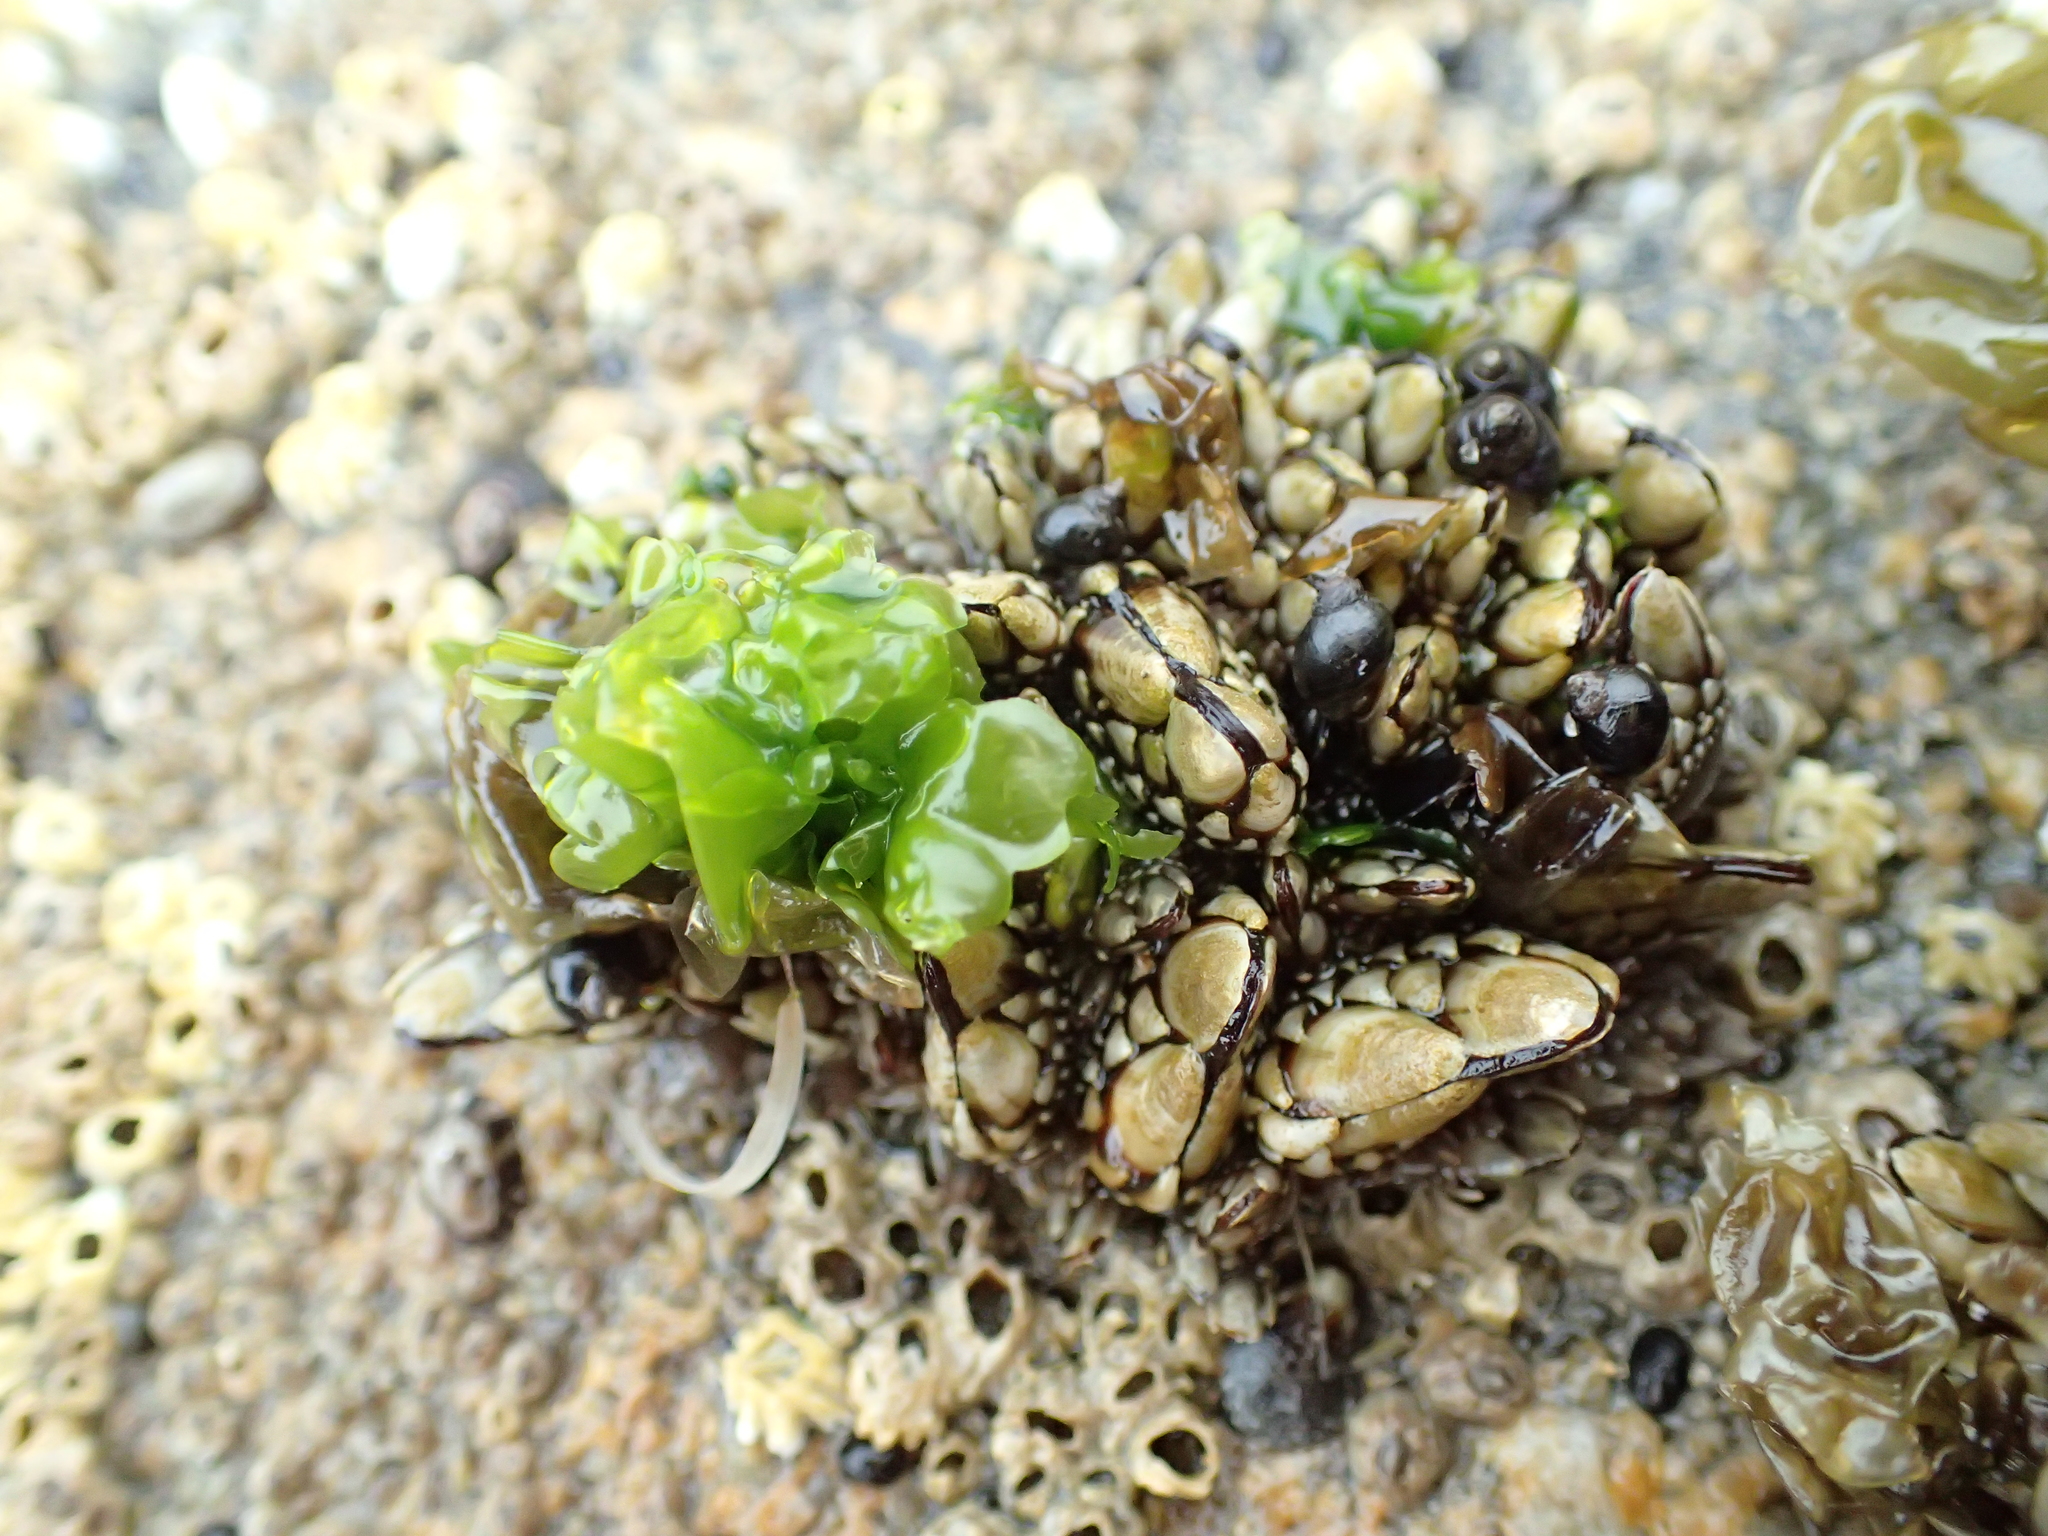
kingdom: Animalia
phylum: Arthropoda
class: Maxillopoda
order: Pedunculata
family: Pollicipedidae
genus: Pollicipes
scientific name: Pollicipes polymerus
